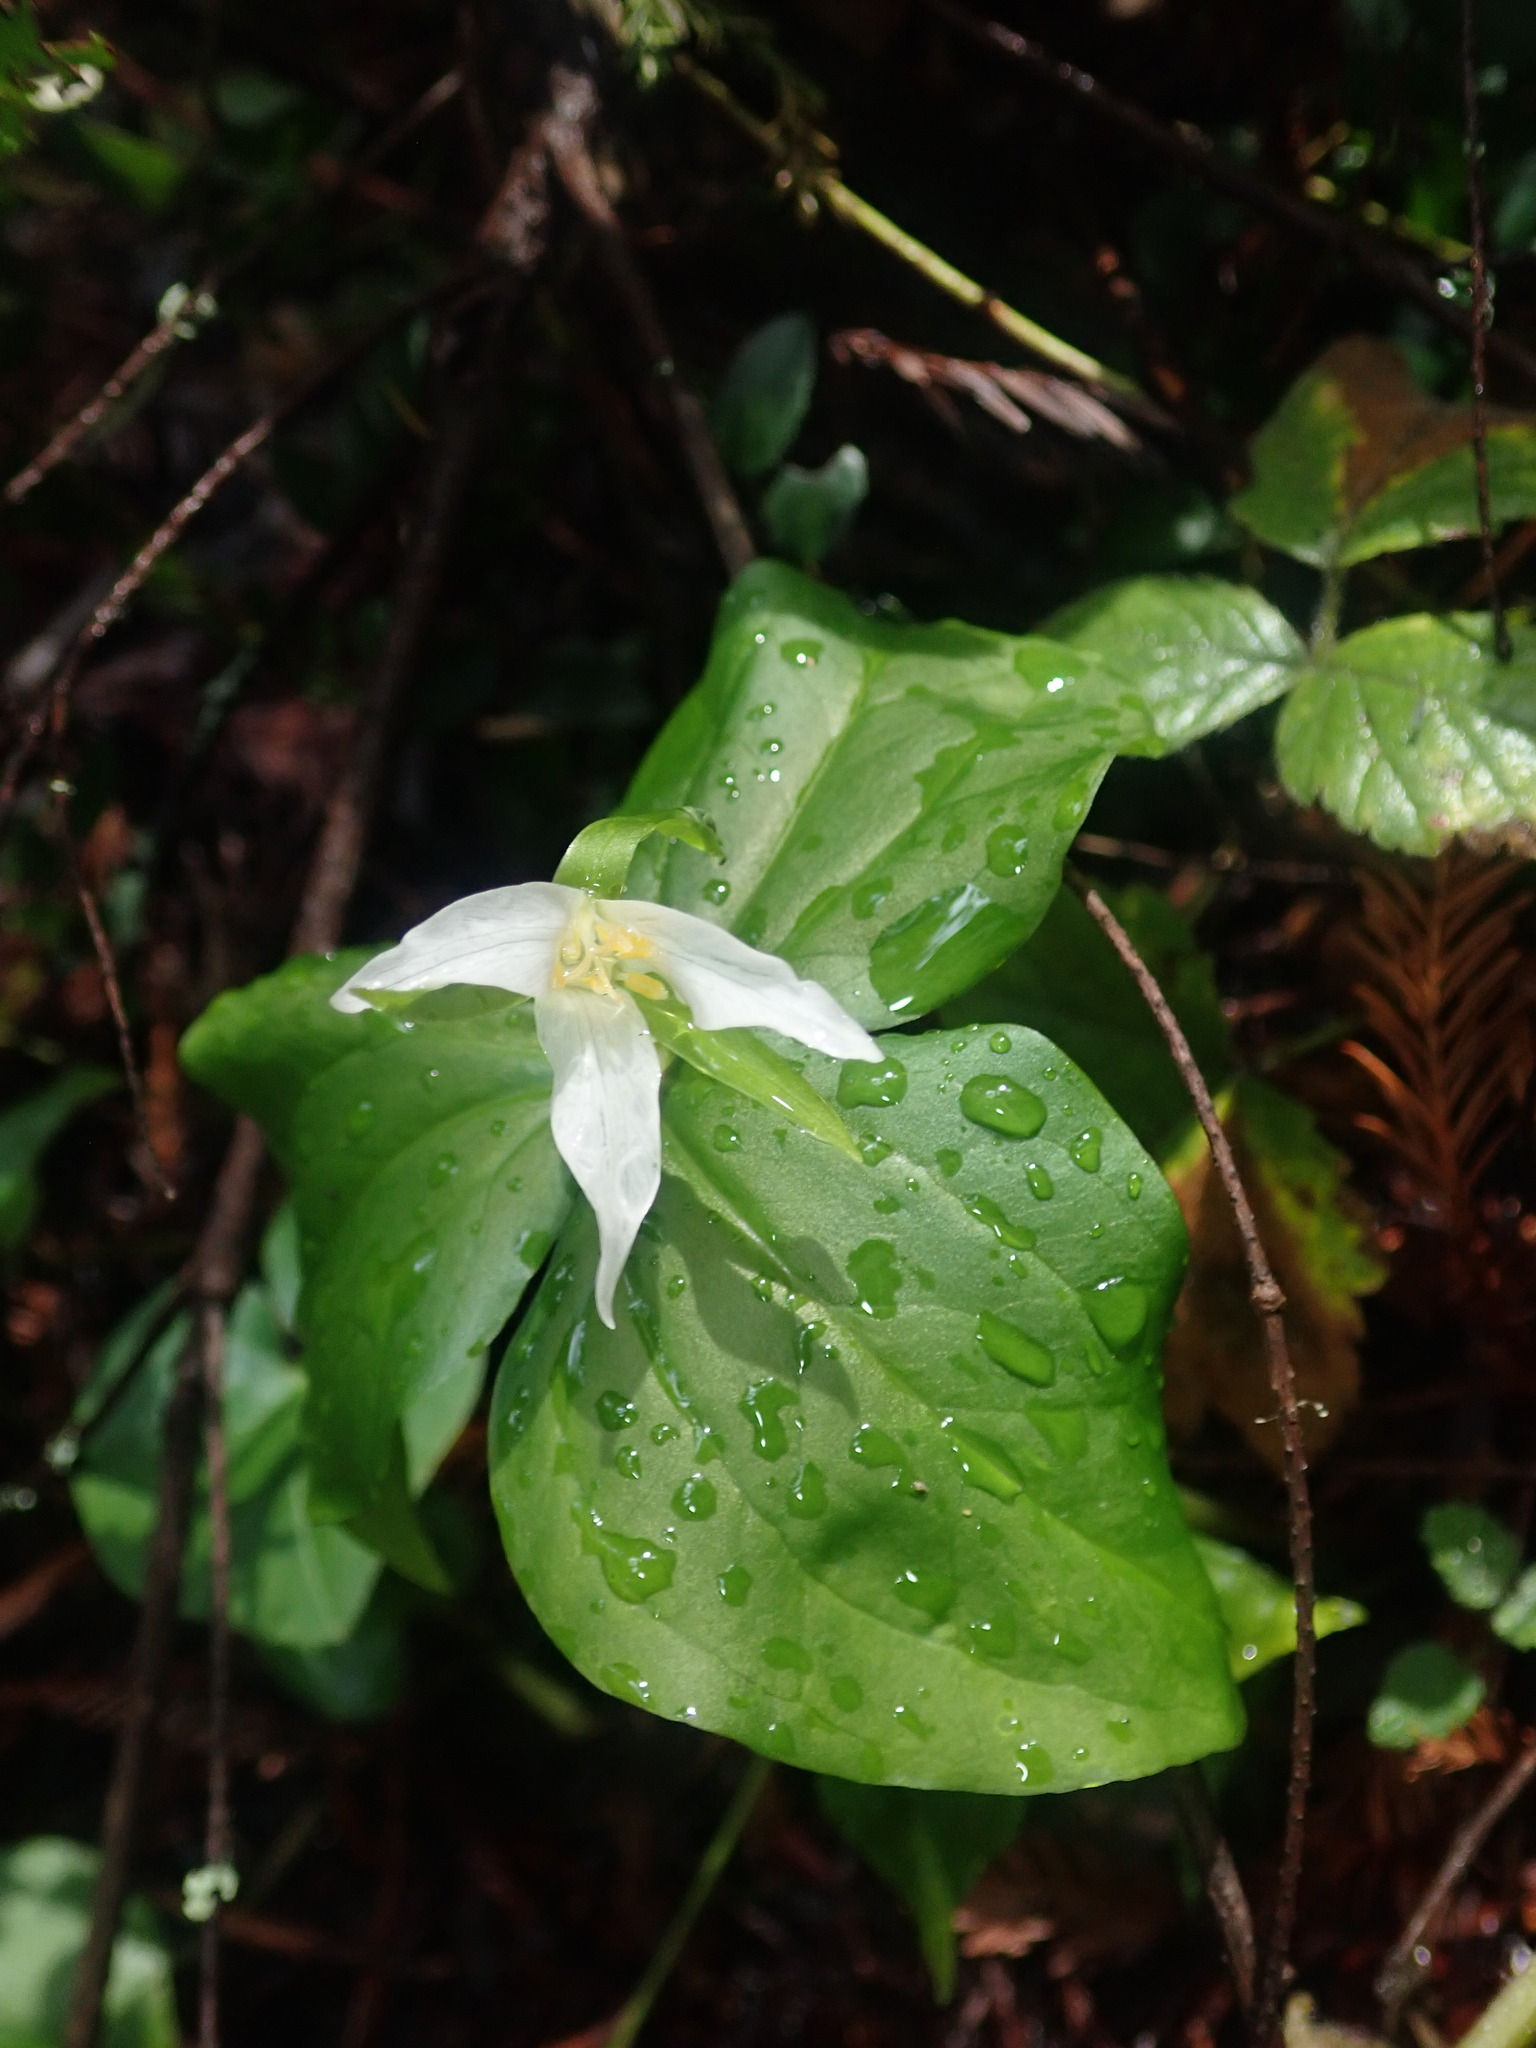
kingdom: Plantae
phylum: Tracheophyta
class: Liliopsida
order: Liliales
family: Melanthiaceae
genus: Trillium
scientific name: Trillium ovatum
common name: Pacific trillium
